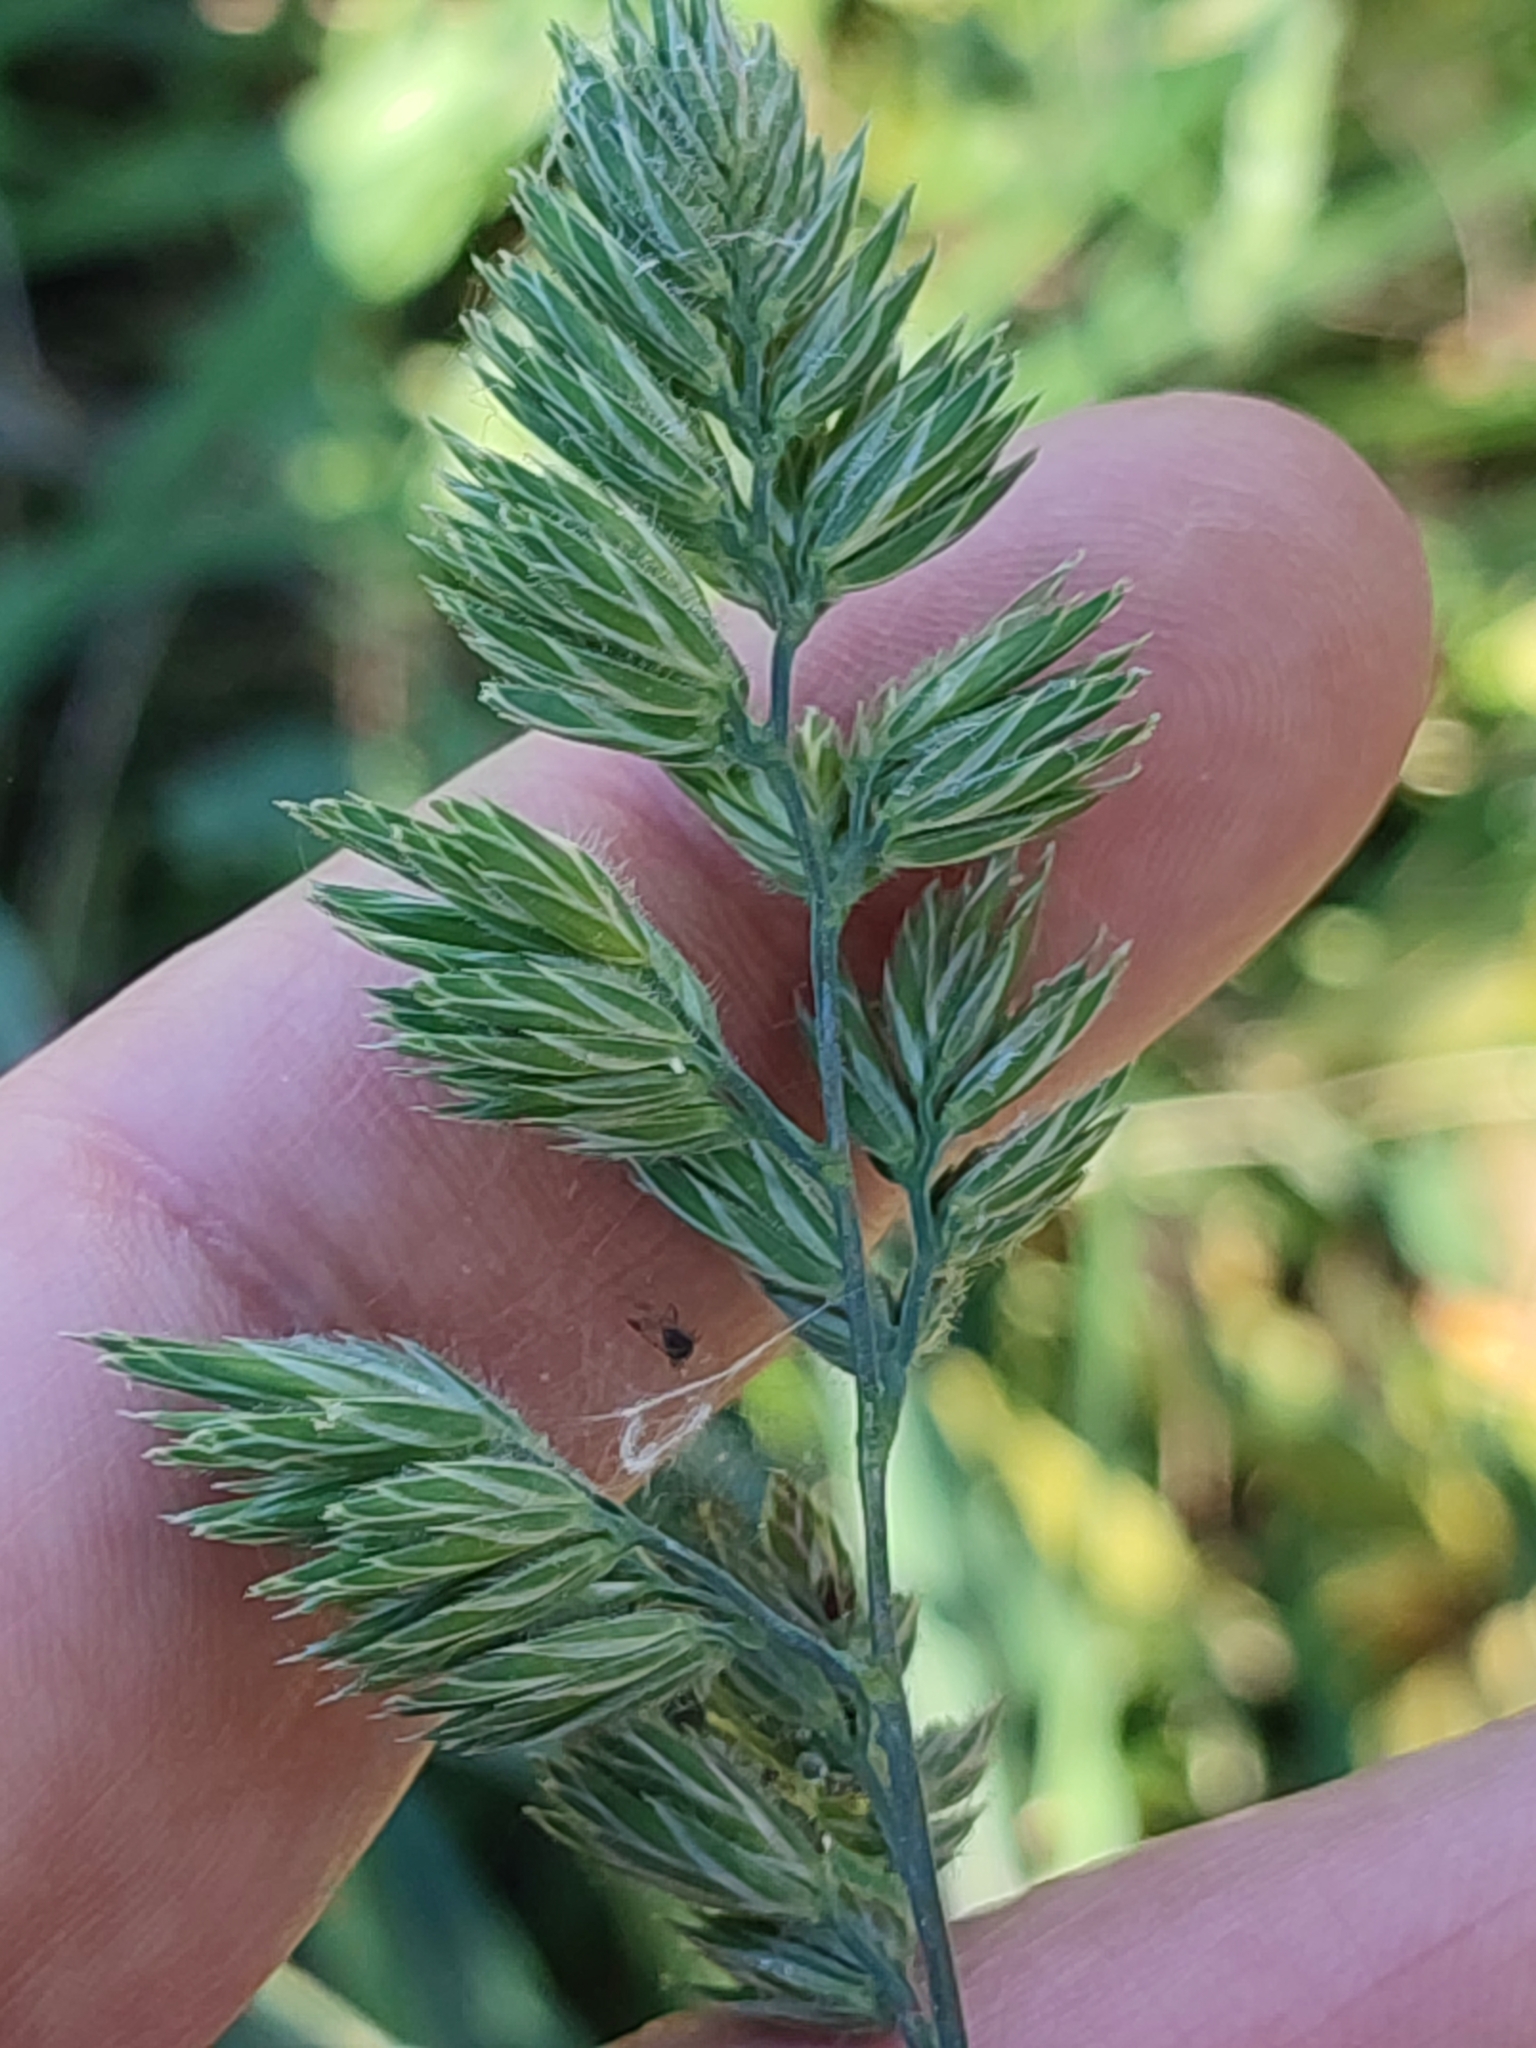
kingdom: Plantae
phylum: Tracheophyta
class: Liliopsida
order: Poales
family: Poaceae
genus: Dactylis
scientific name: Dactylis glomerata
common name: Orchardgrass
